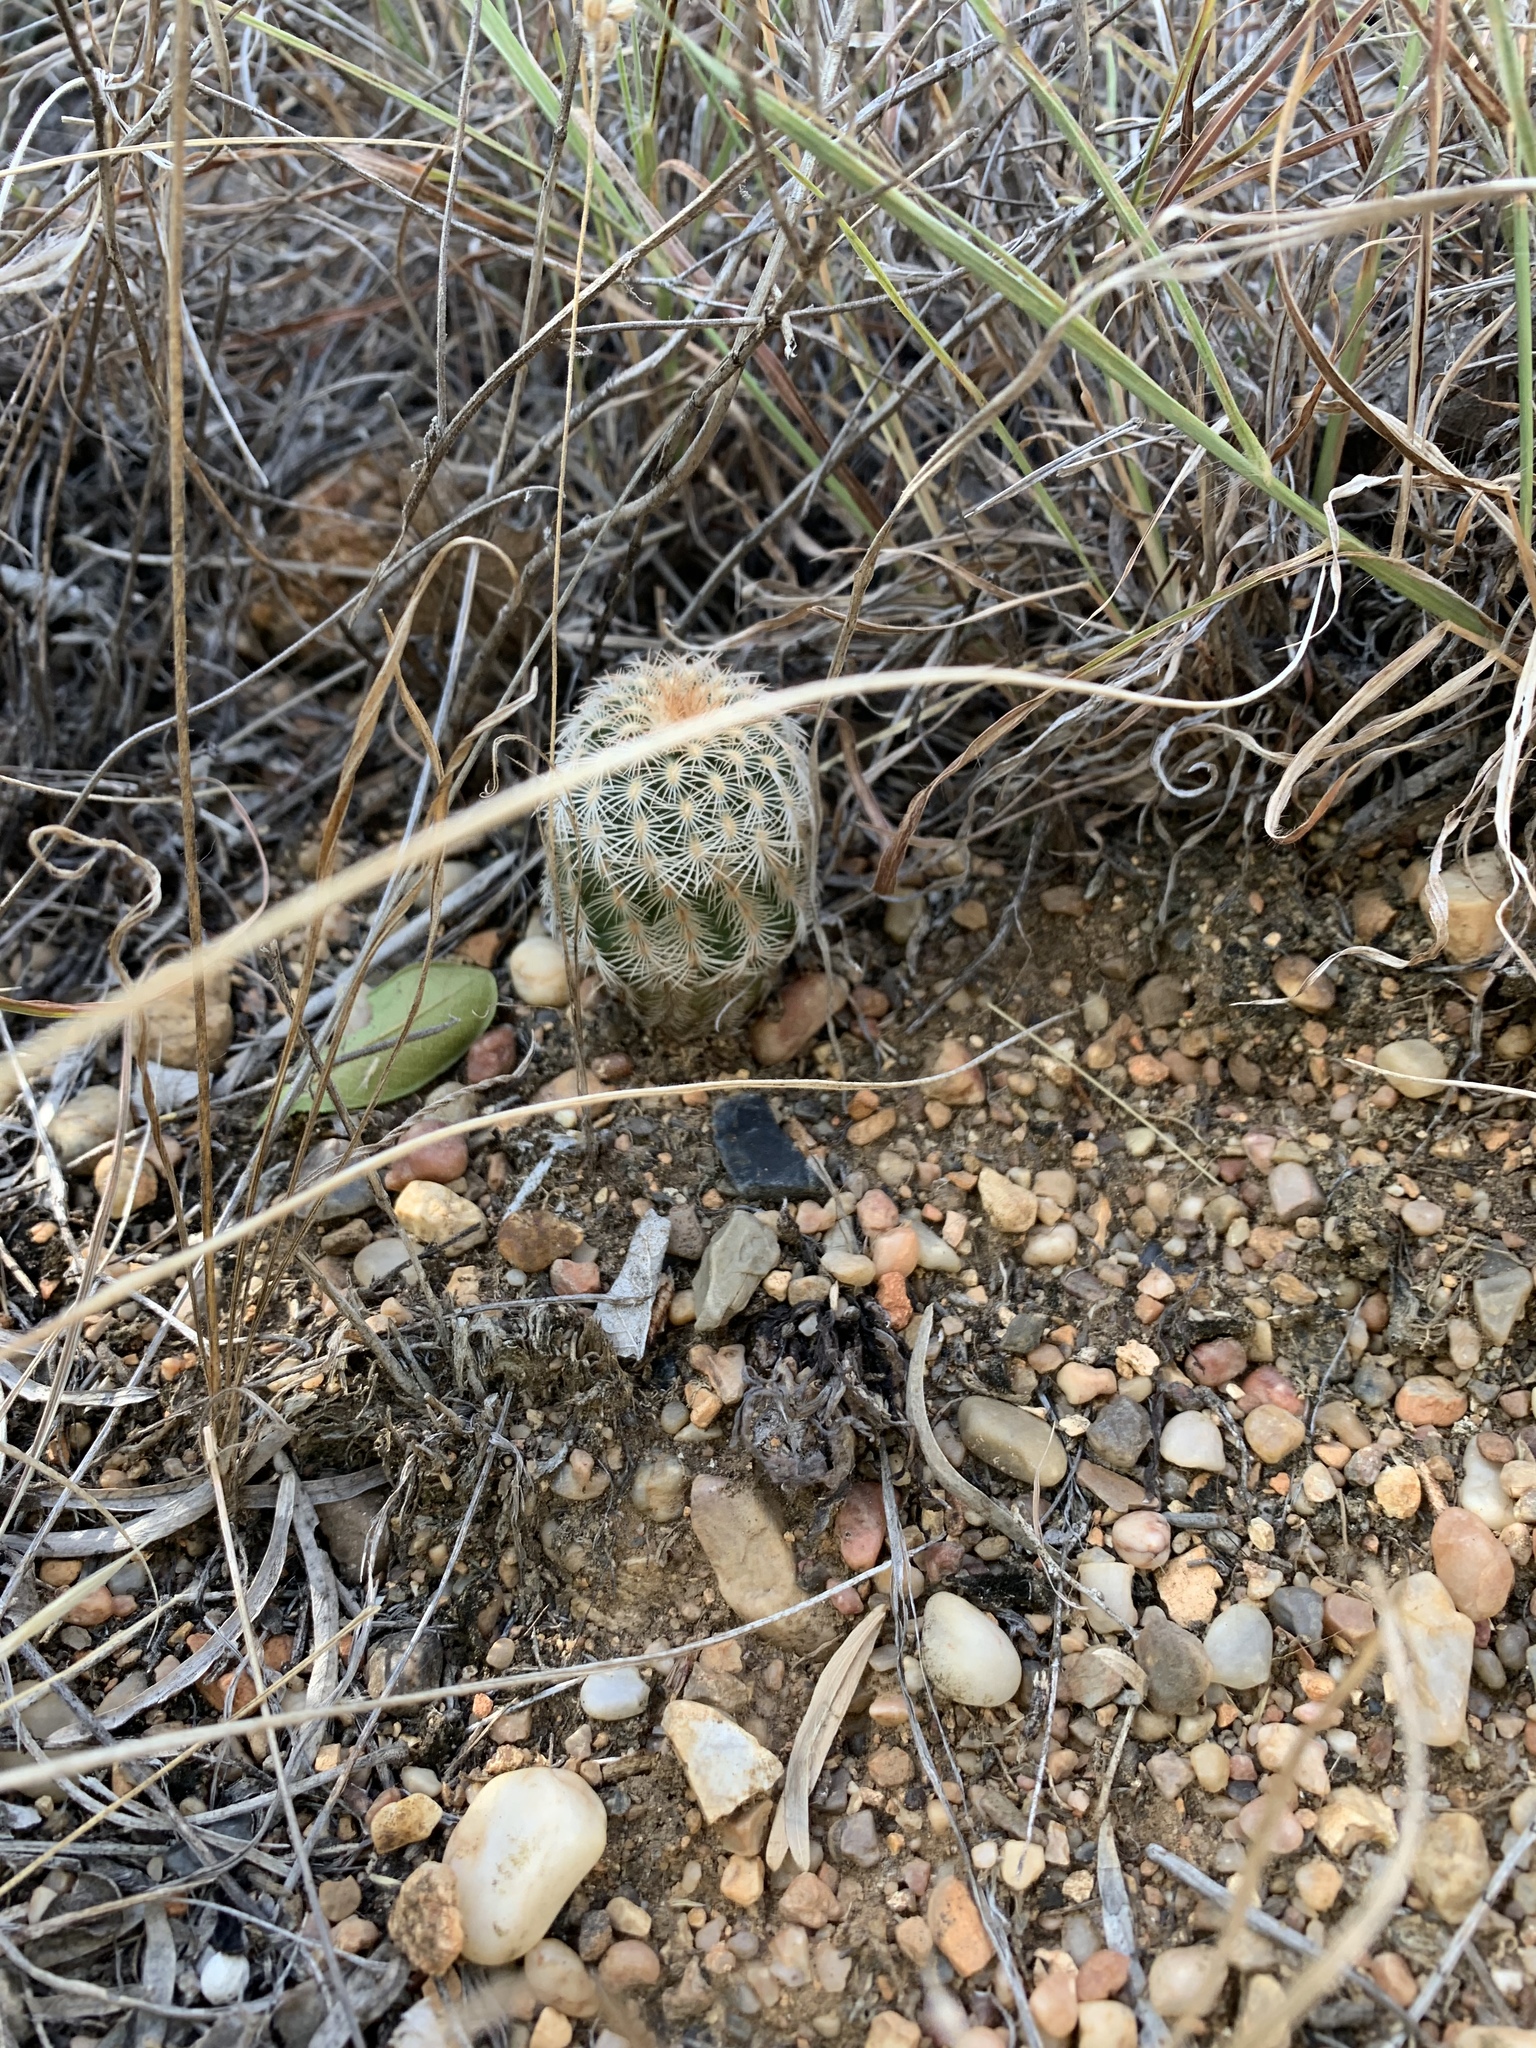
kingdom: Plantae
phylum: Tracheophyta
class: Magnoliopsida
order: Caryophyllales
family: Cactaceae
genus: Echinocereus
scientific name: Echinocereus reichenbachii
